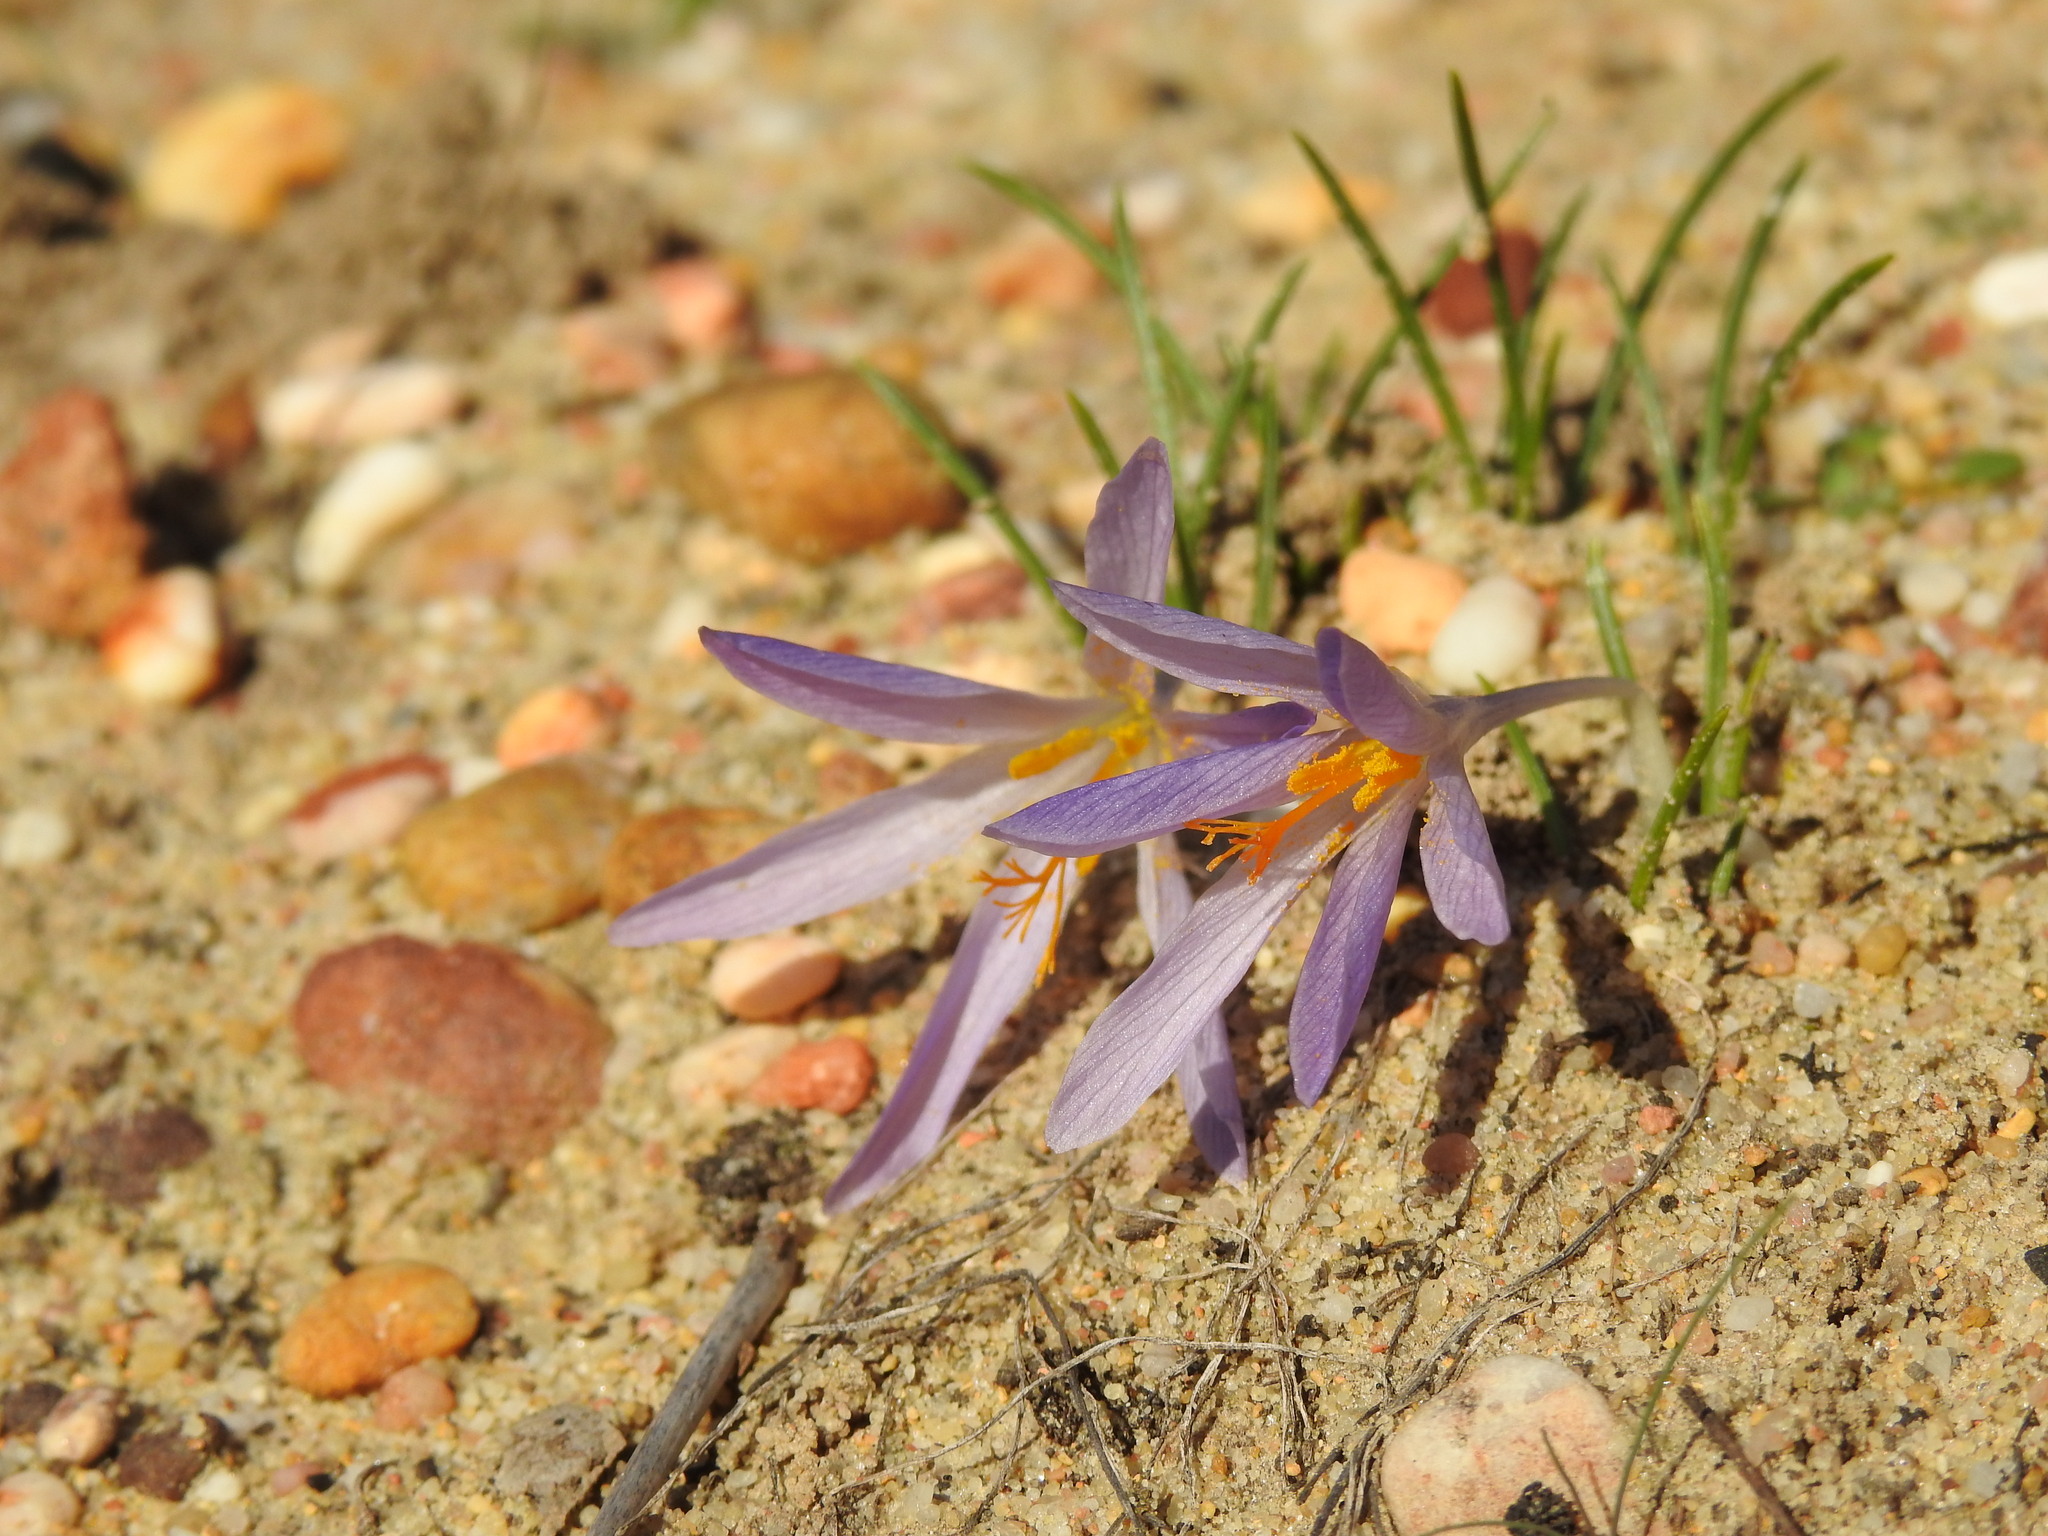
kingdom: Plantae
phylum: Tracheophyta
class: Liliopsida
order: Asparagales
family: Iridaceae
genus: Crocus
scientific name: Crocus serotinus
